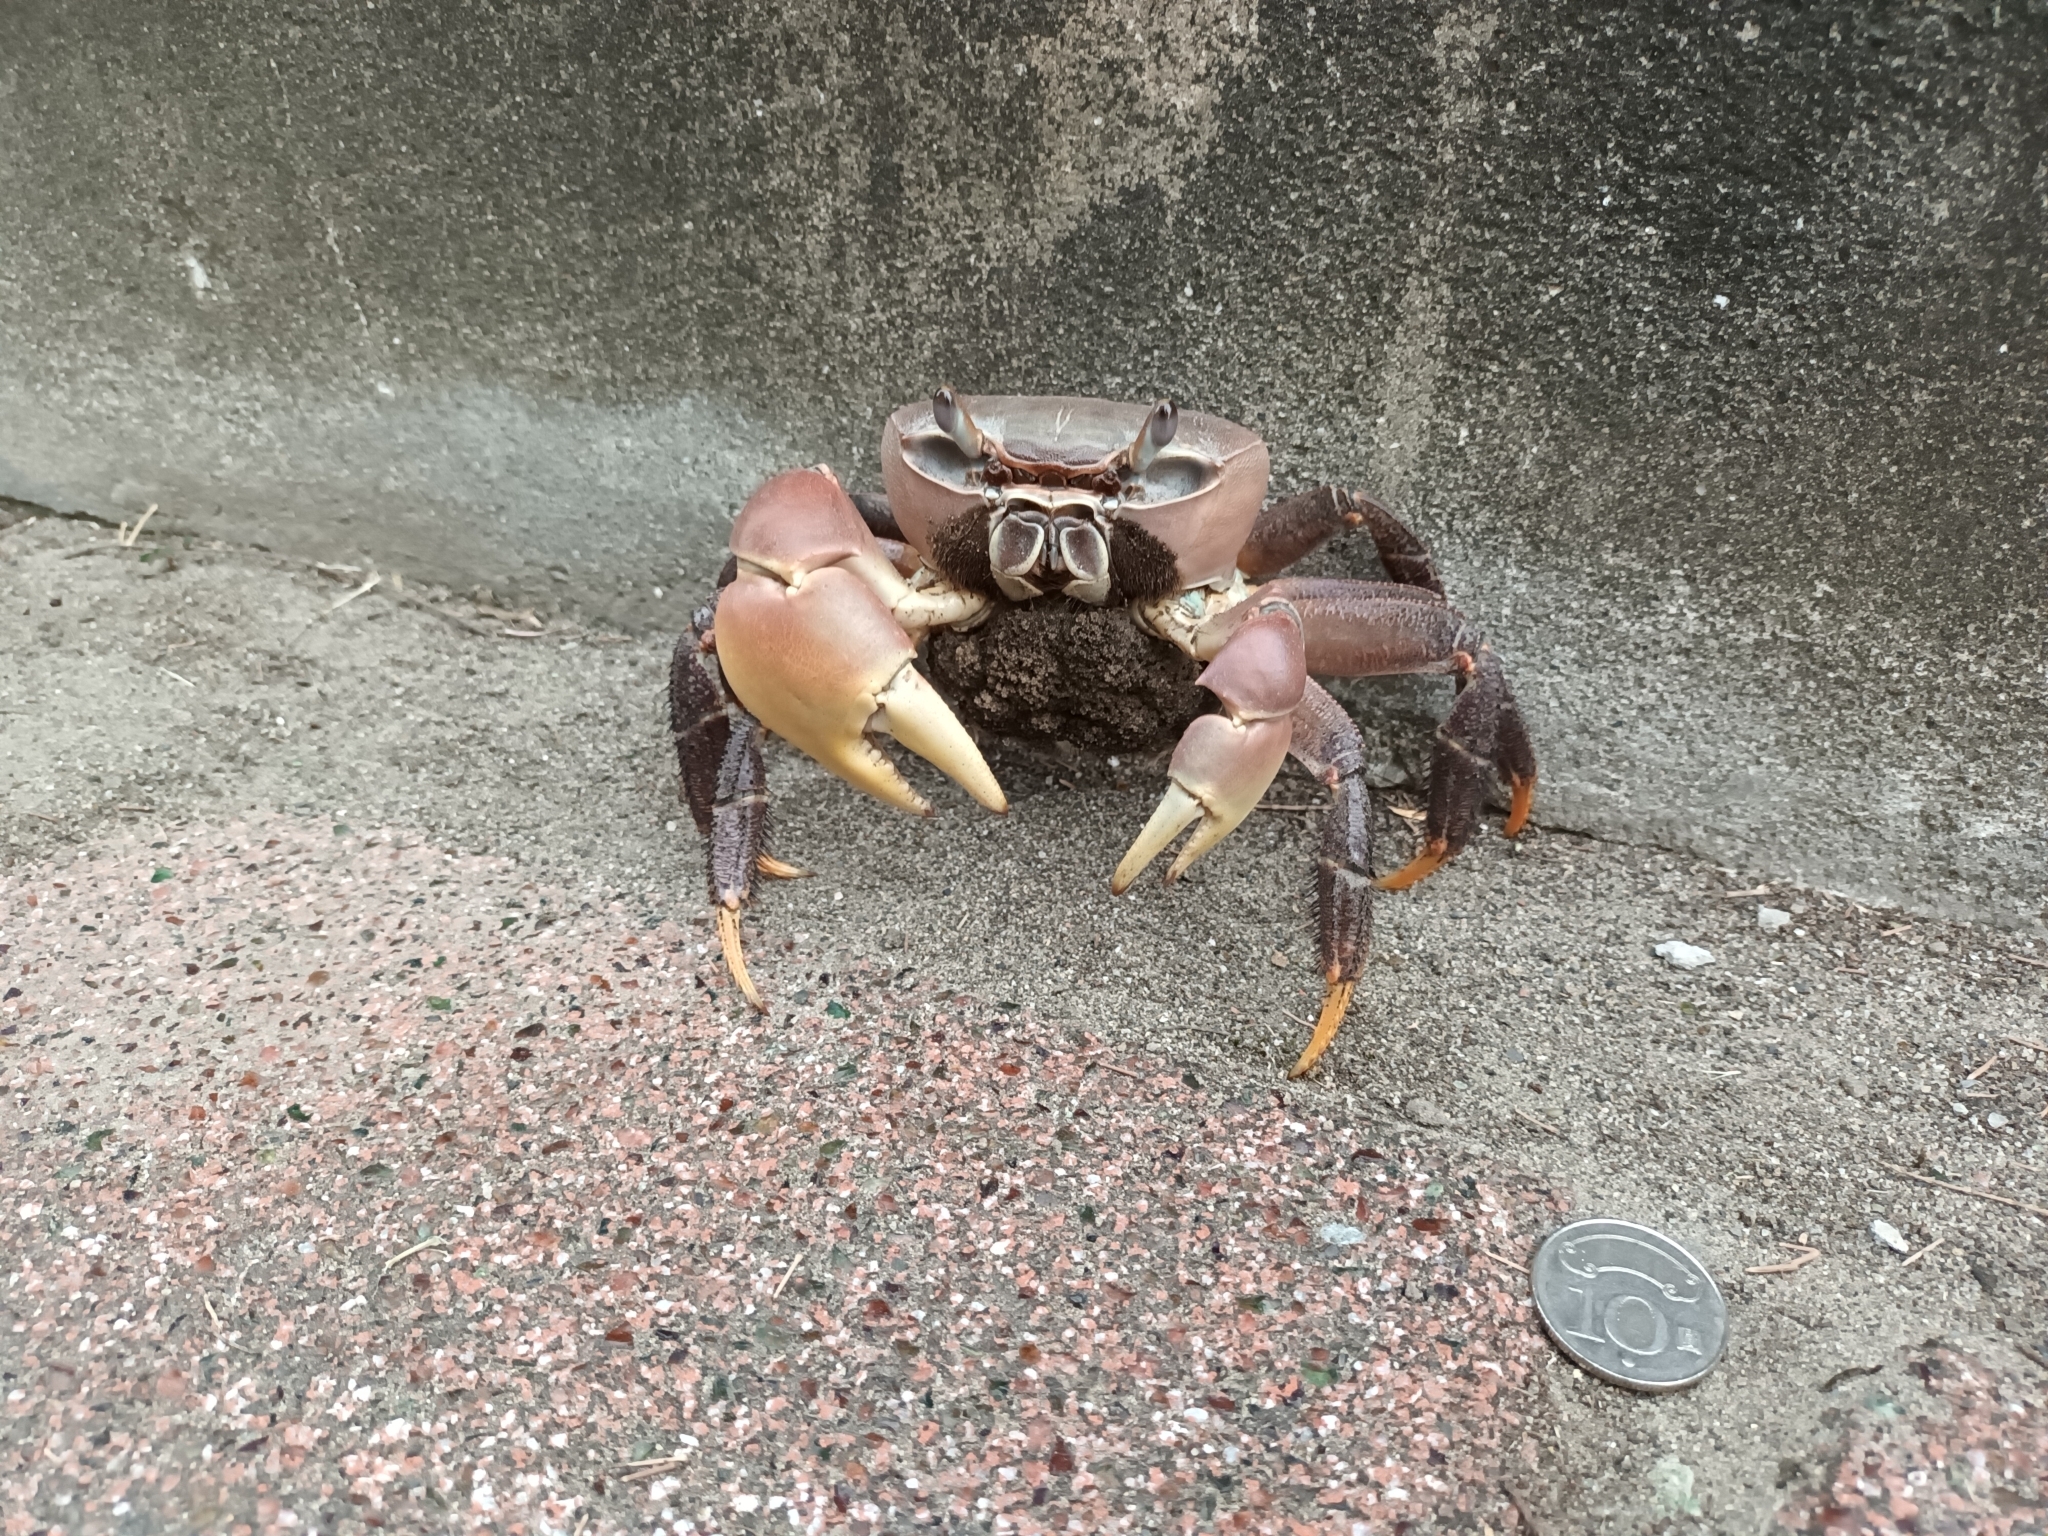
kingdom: Animalia
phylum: Arthropoda
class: Malacostraca
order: Decapoda
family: Gecarcinidae
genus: Cardisoma
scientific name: Cardisoma carnifex
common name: Brown land crab
